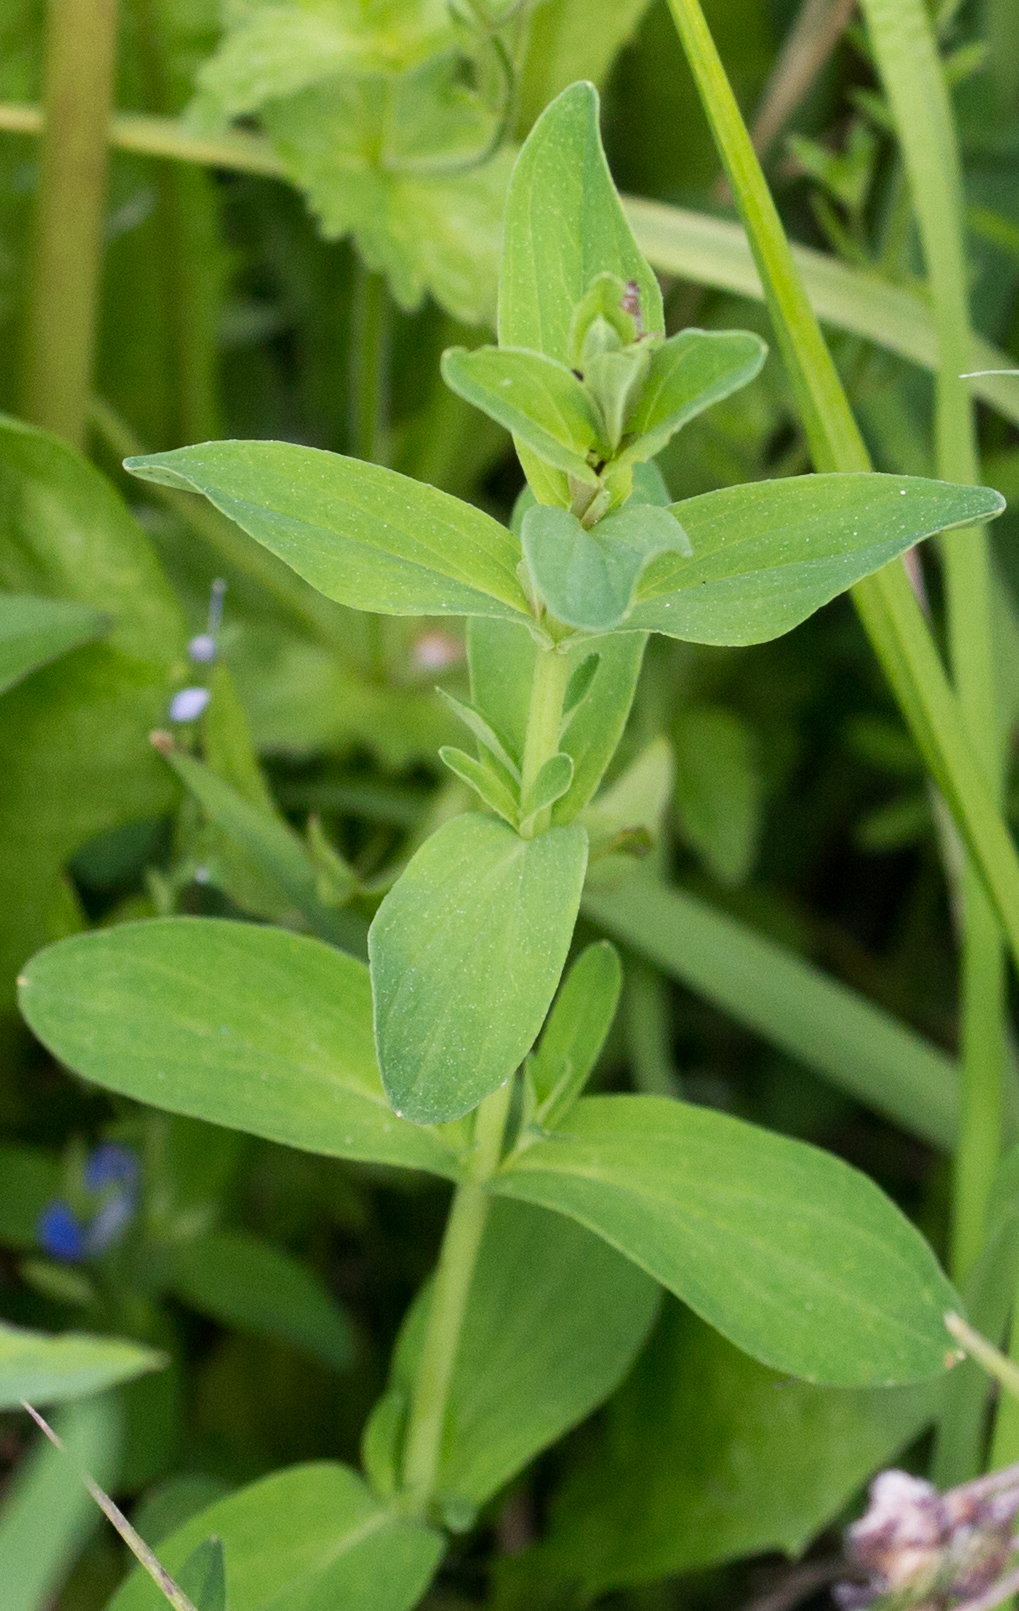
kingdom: Plantae
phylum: Tracheophyta
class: Magnoliopsida
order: Malpighiales
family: Hypericaceae
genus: Hypericum
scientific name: Hypericum perforatum
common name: Common st. johnswort
